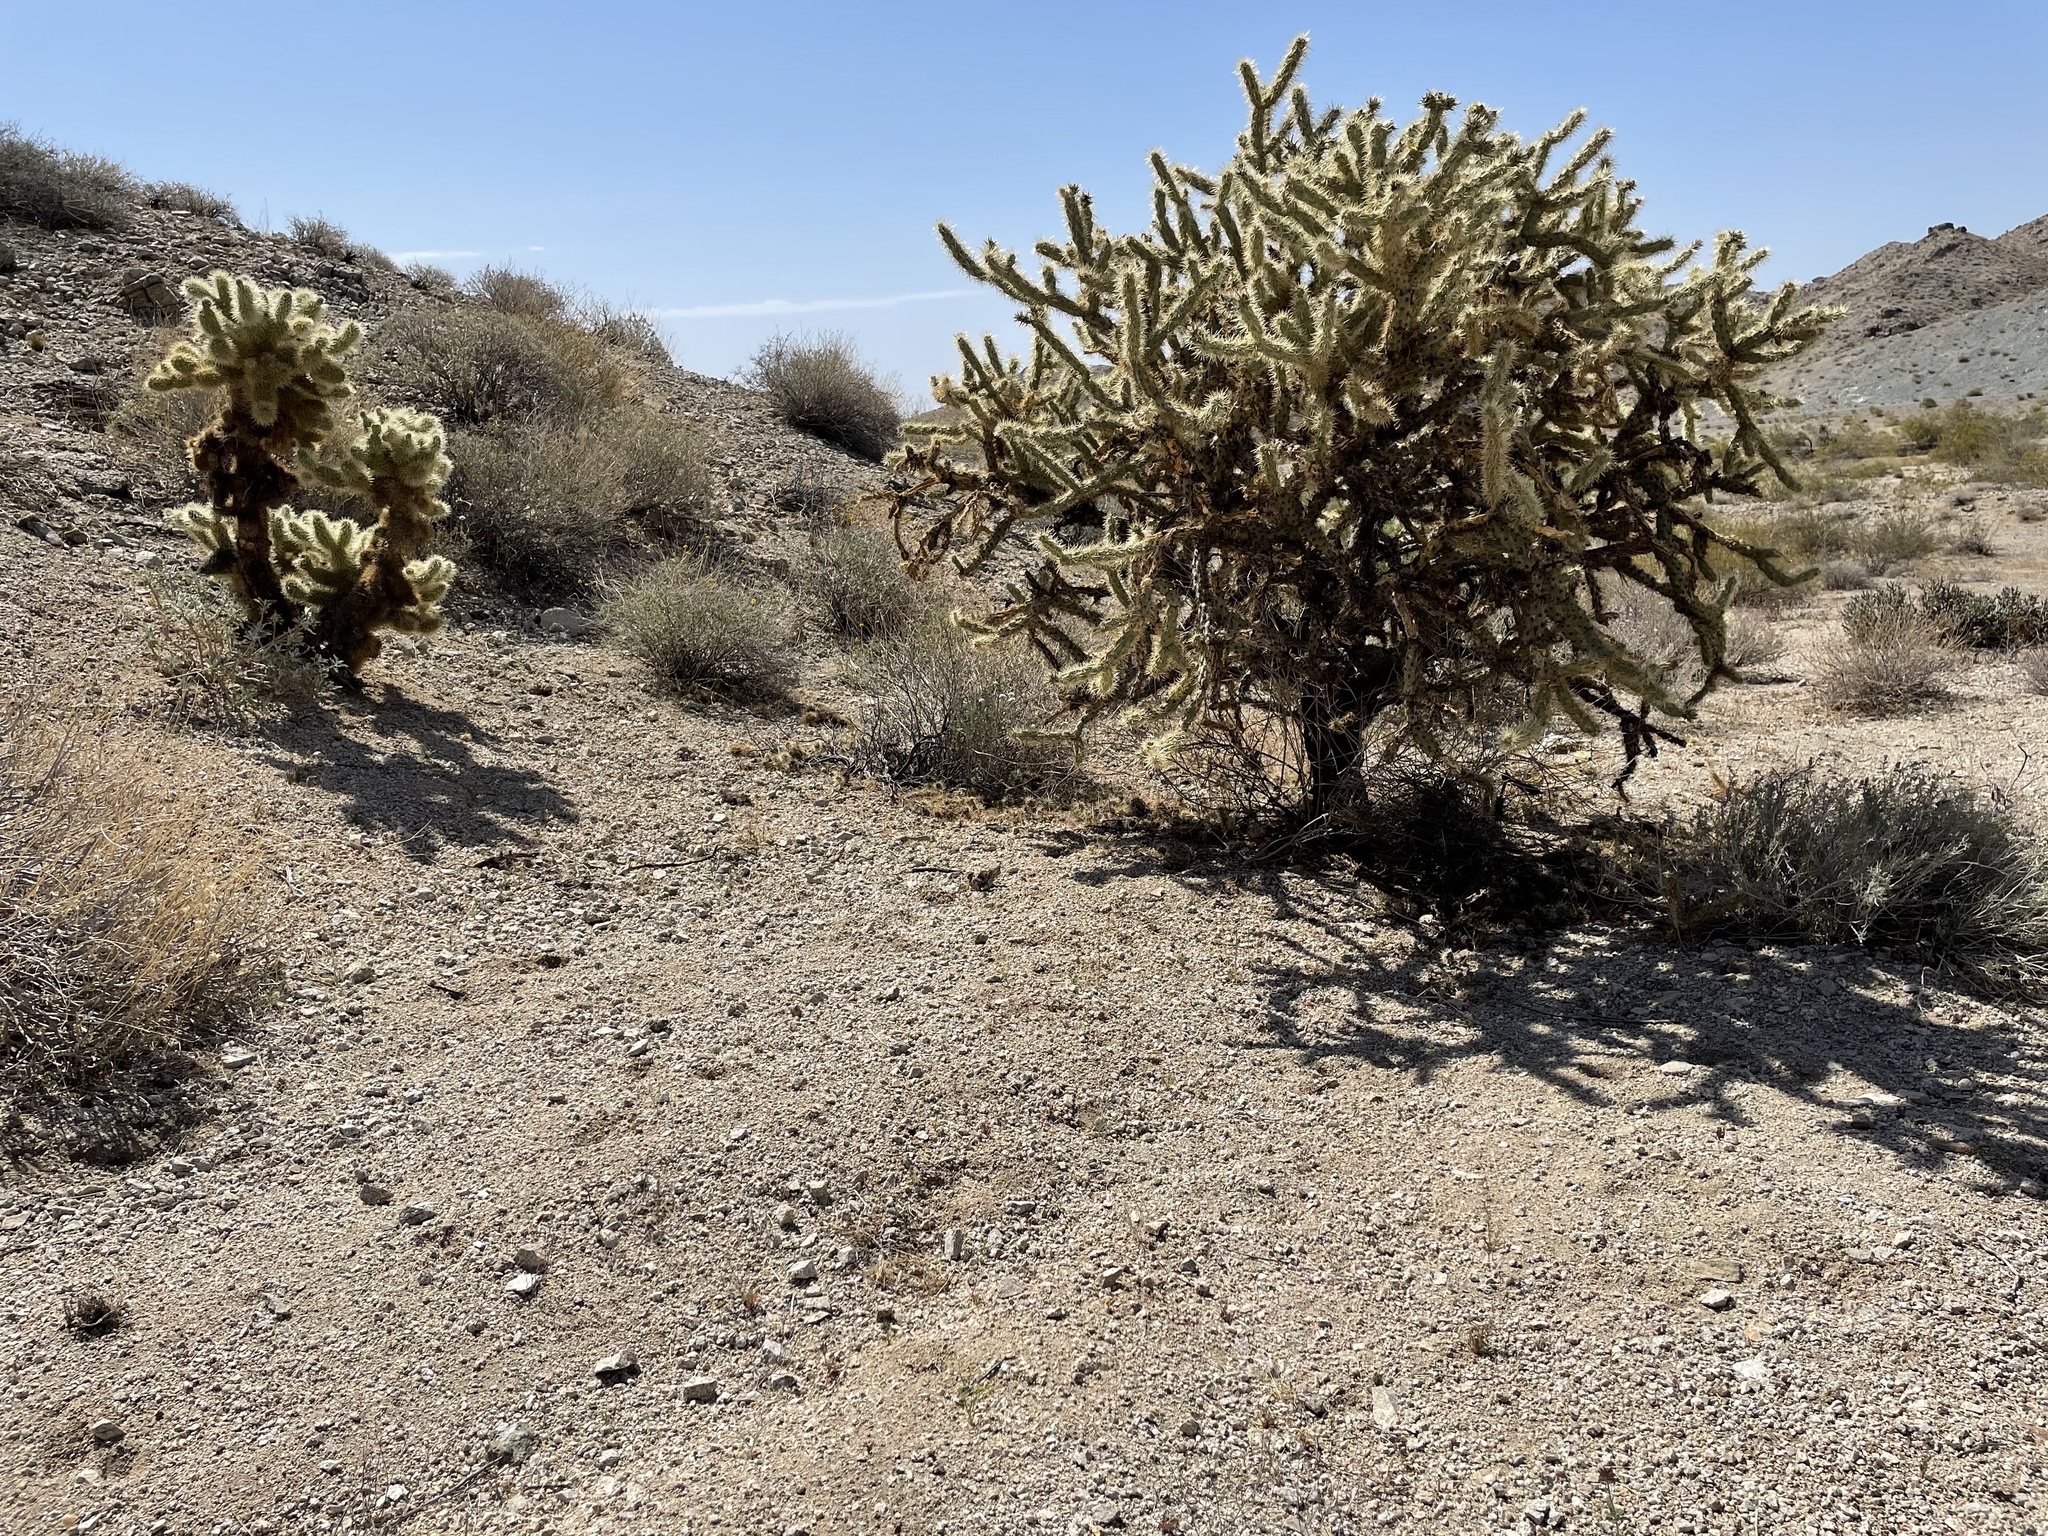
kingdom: Plantae
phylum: Tracheophyta
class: Magnoliopsida
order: Caryophyllales
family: Cactaceae
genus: Cylindropuntia
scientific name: Cylindropuntia acanthocarpa
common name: Buckhorn cholla
